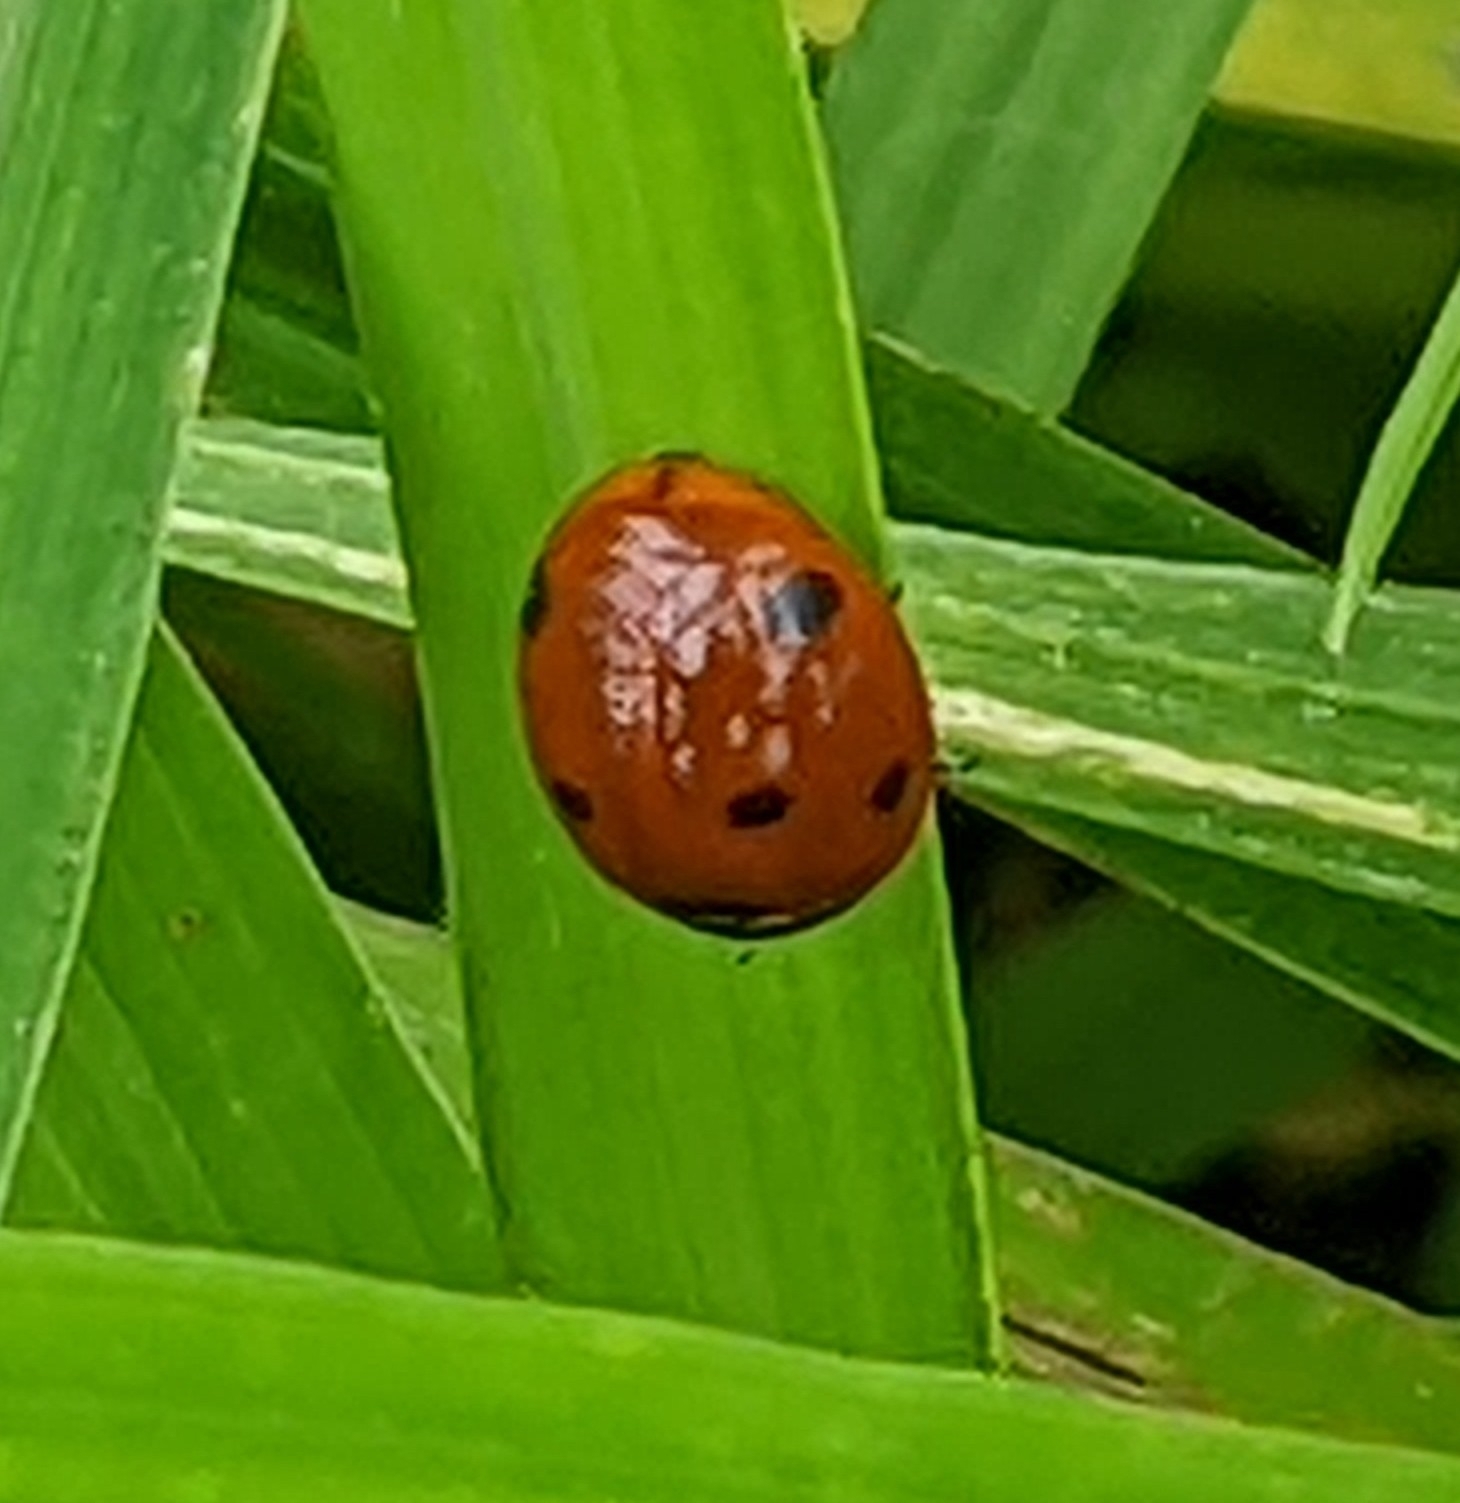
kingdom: Animalia
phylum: Arthropoda
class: Insecta
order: Coleoptera
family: Coccinellidae
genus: Coccinella
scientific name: Coccinella septempunctata
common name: Sevenspotted lady beetle
